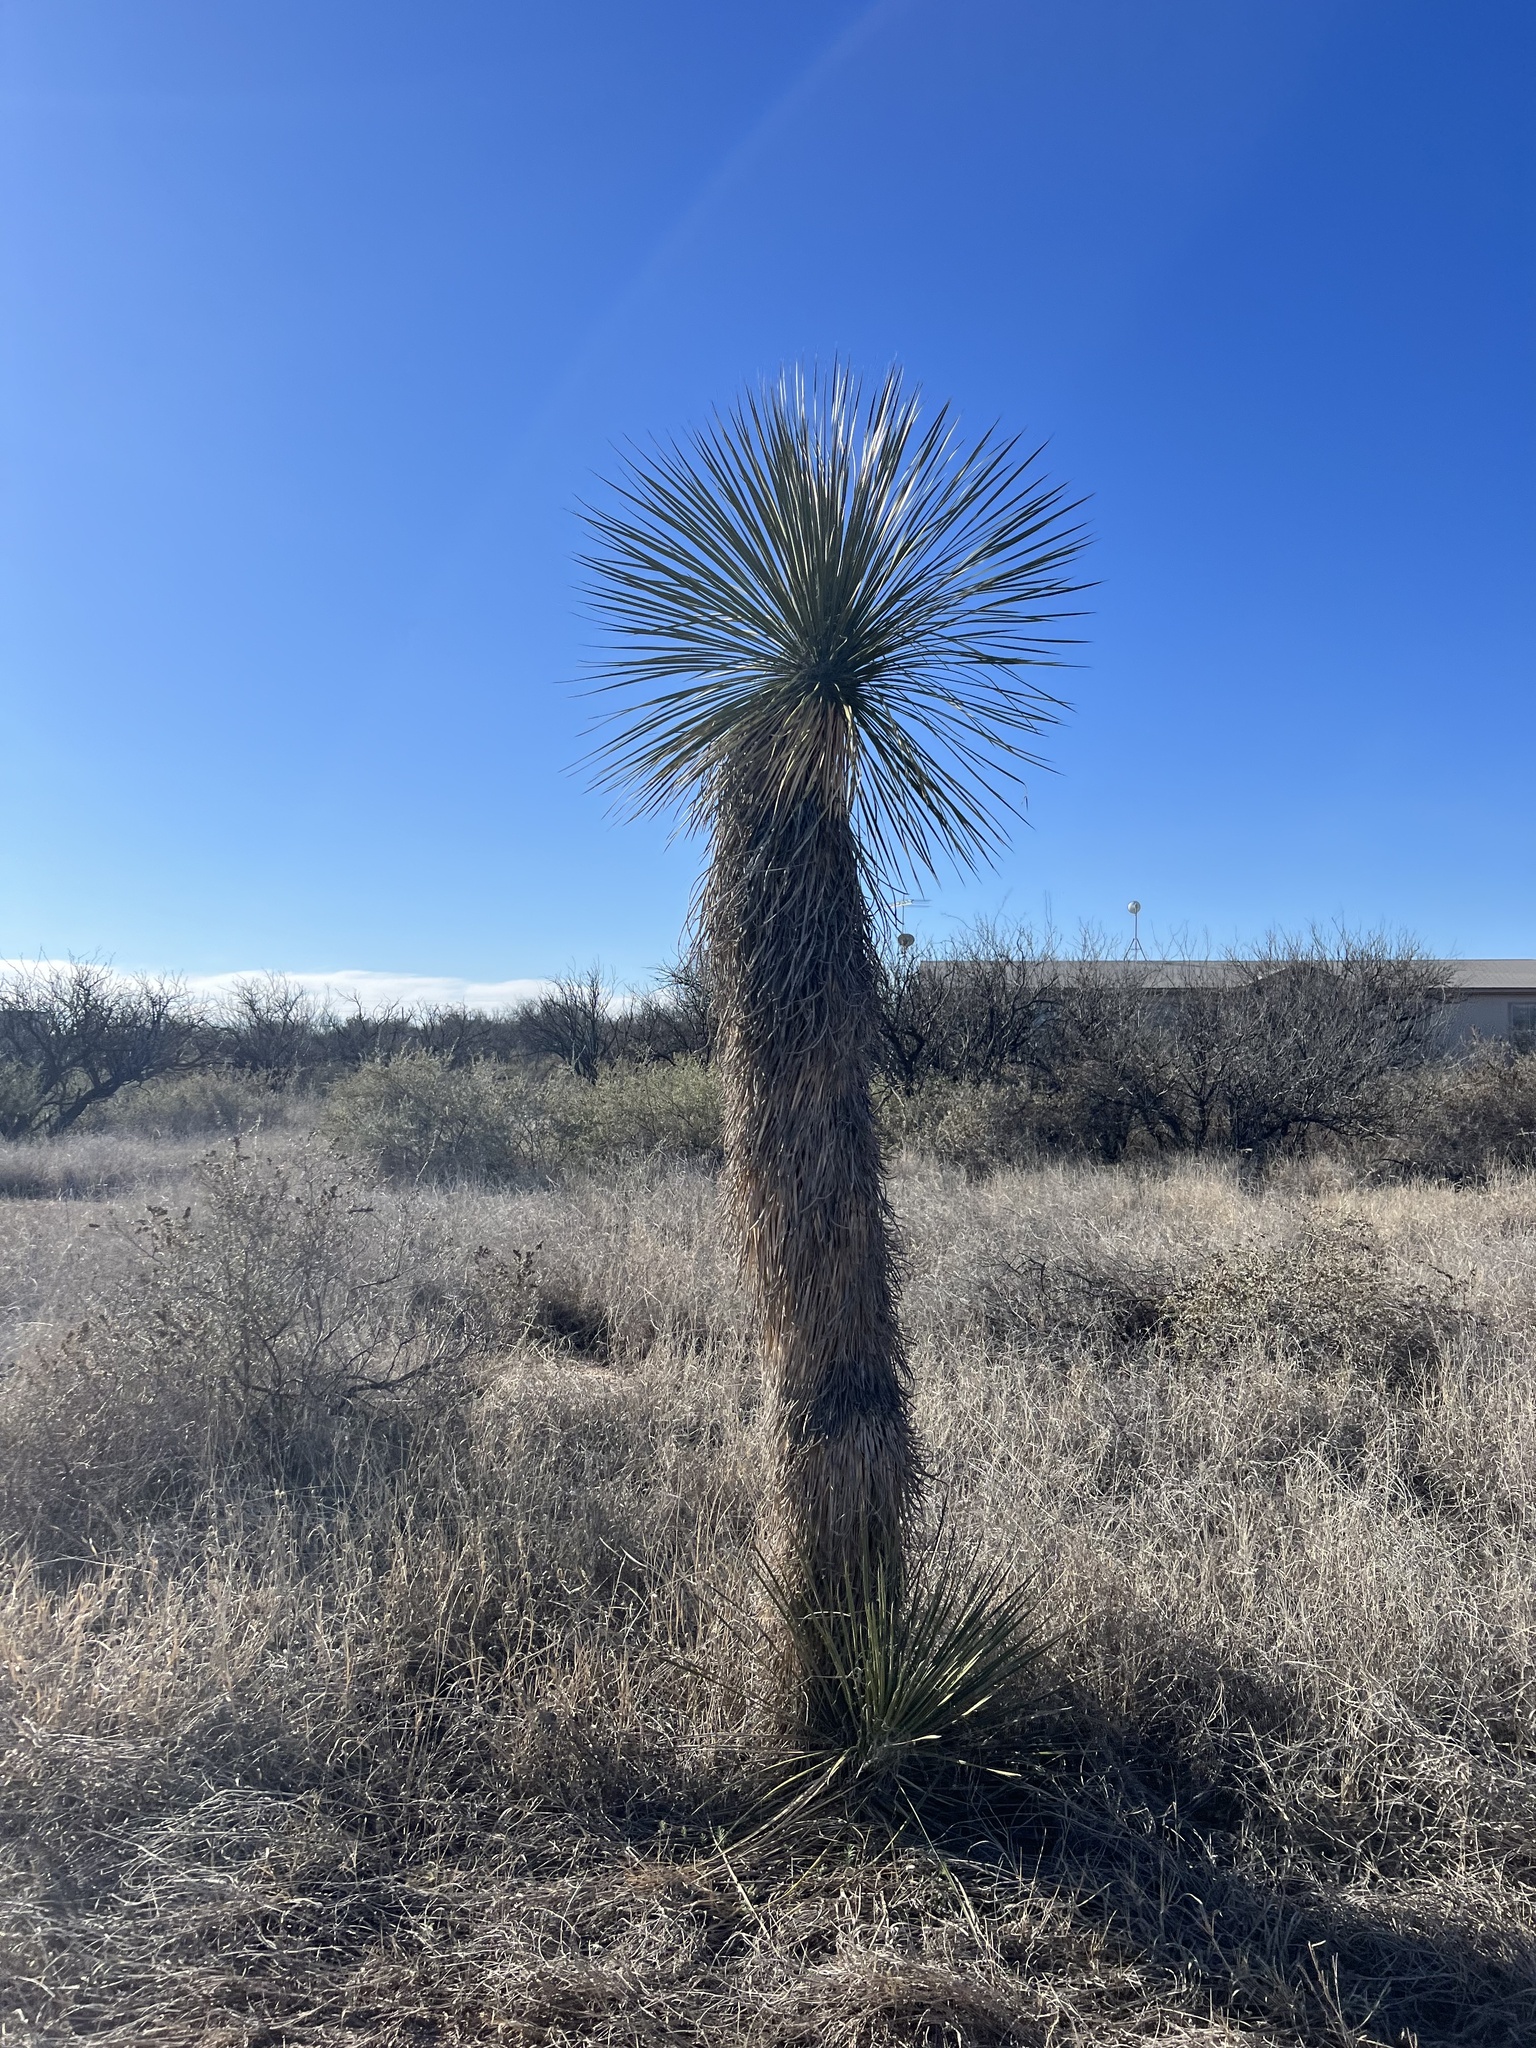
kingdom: Plantae
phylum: Tracheophyta
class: Liliopsida
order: Asparagales
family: Asparagaceae
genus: Yucca
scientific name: Yucca elata
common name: Palmella
